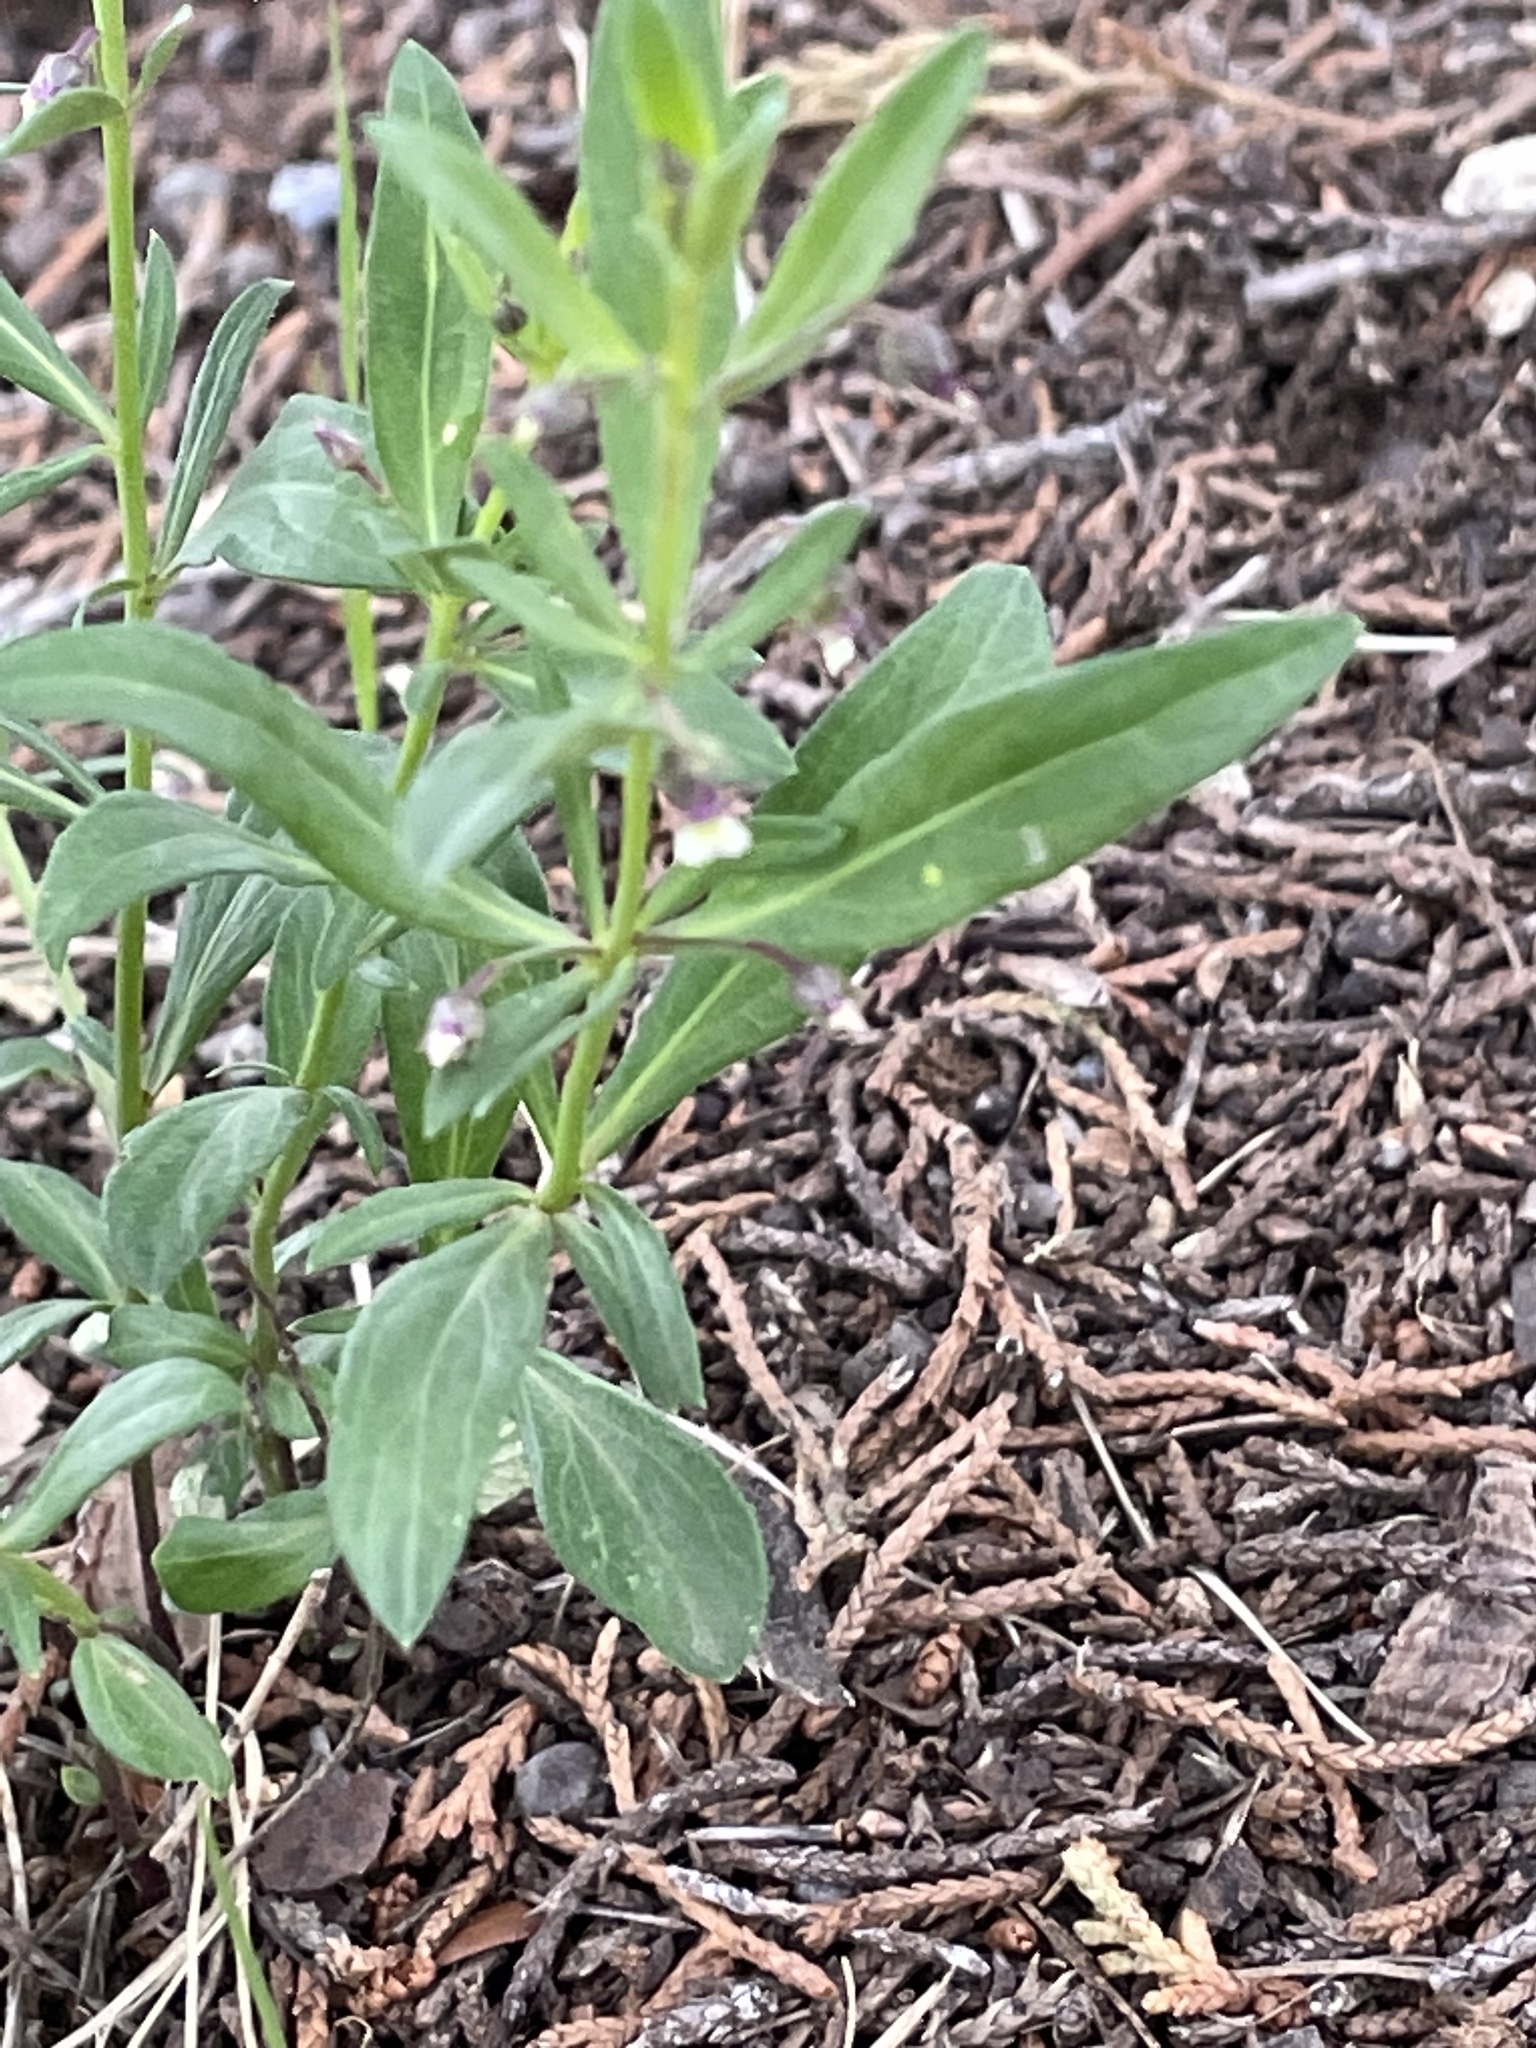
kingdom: Plantae
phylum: Tracheophyta
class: Magnoliopsida
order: Malpighiales
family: Violaceae
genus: Pombalia
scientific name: Pombalia verticillata
